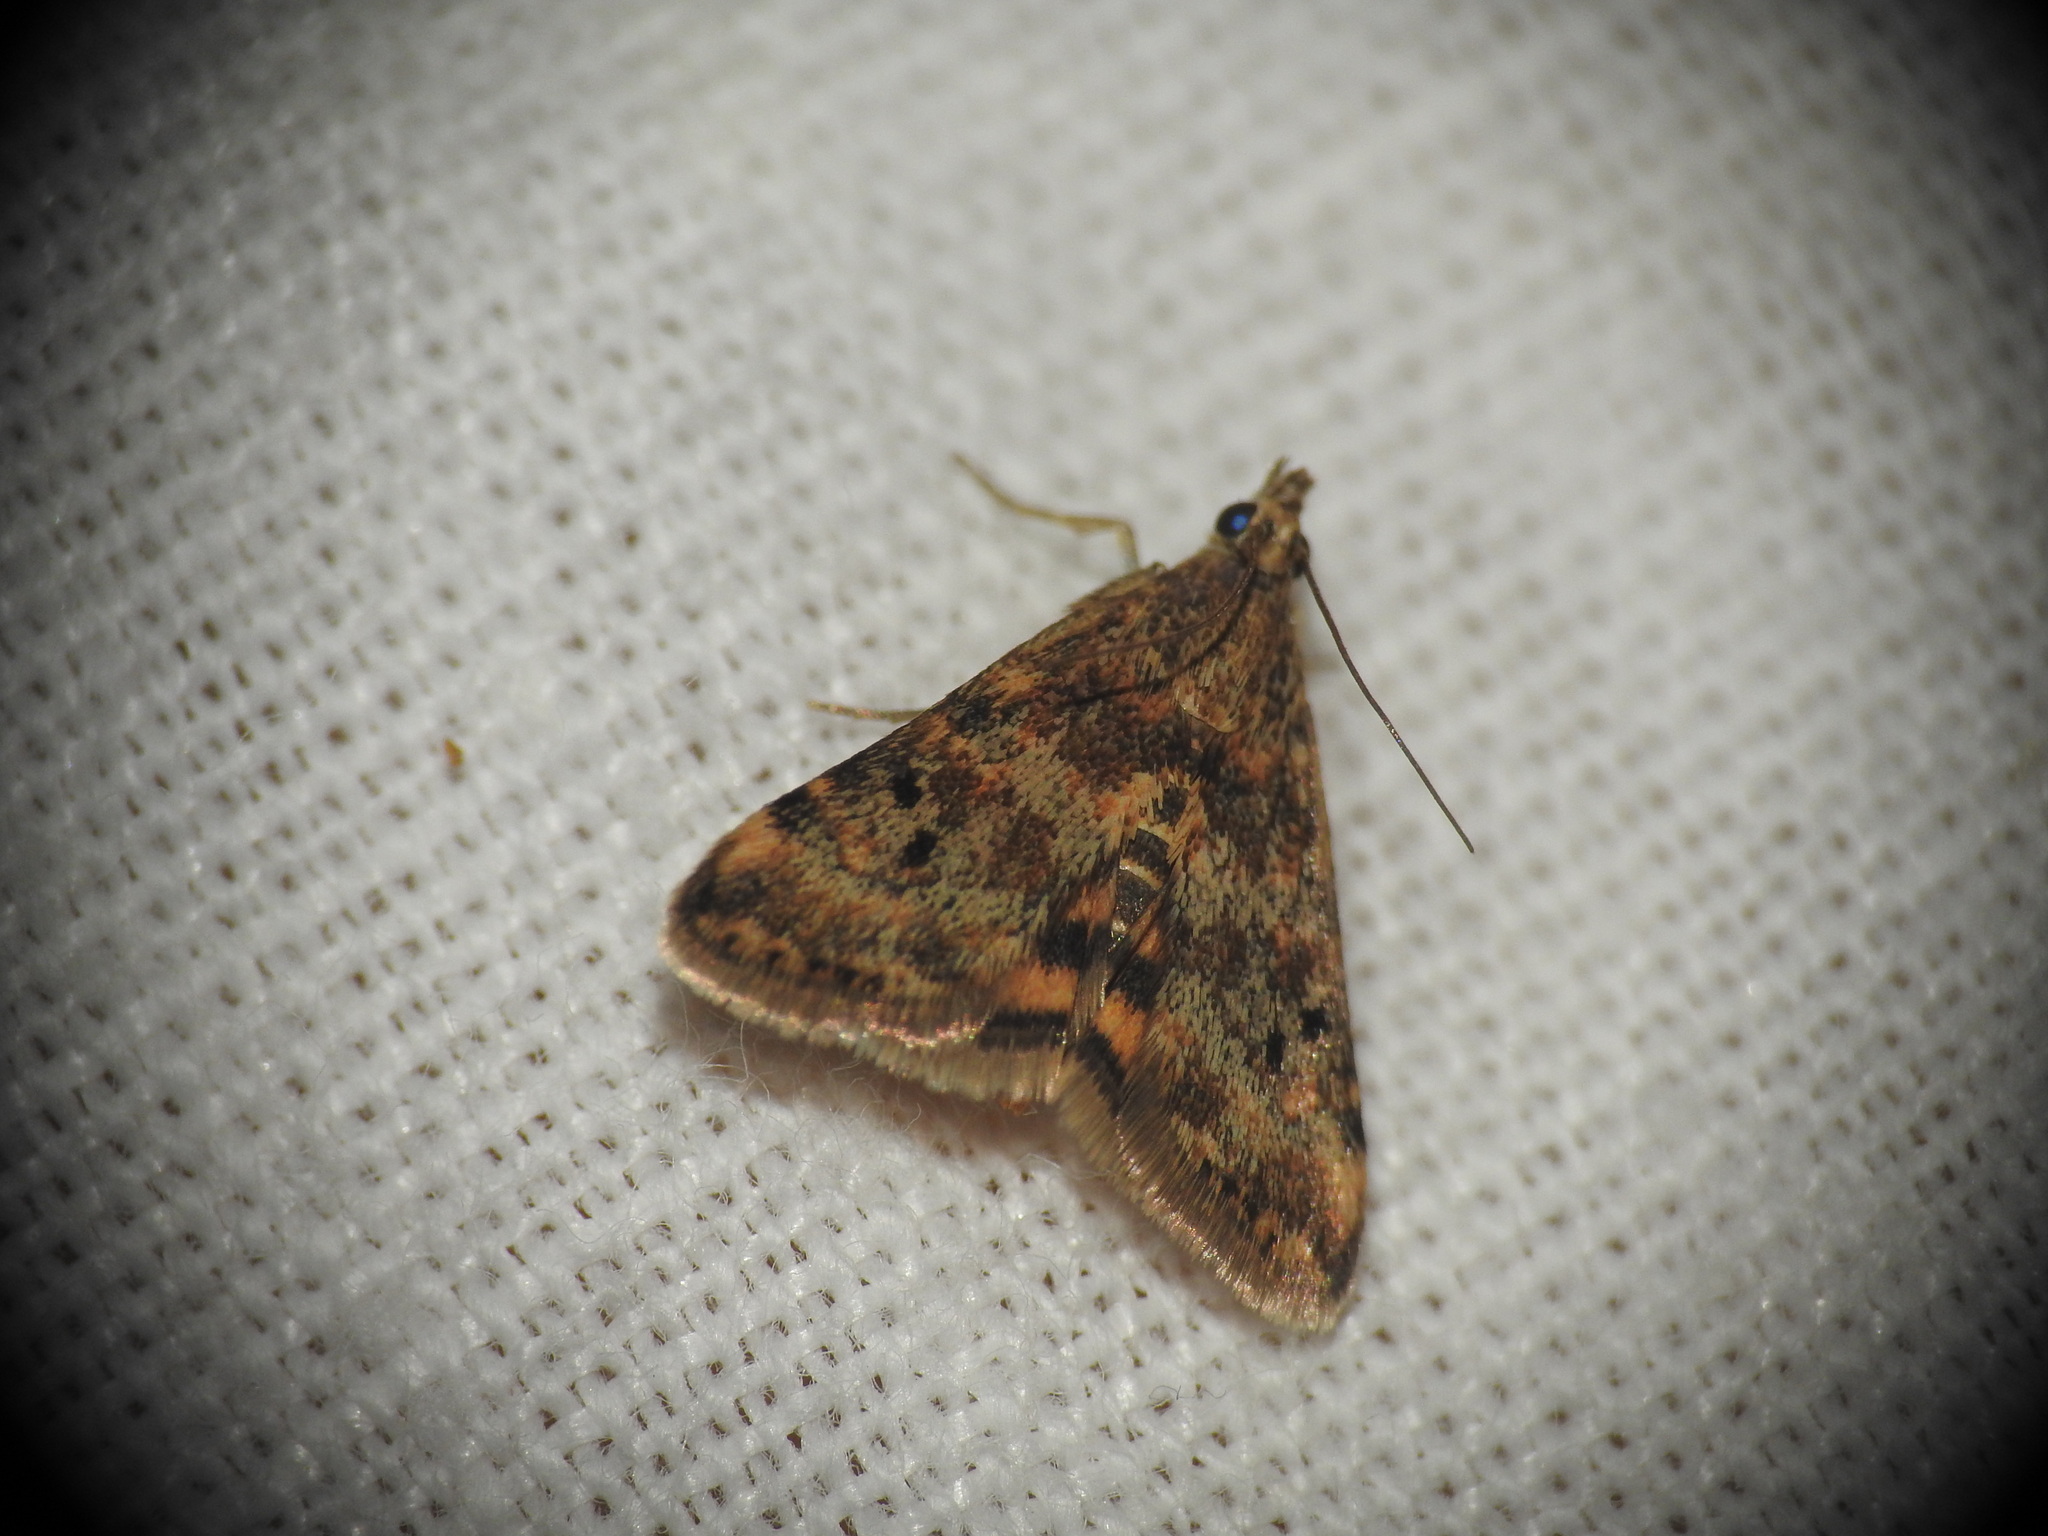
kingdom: Animalia
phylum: Arthropoda
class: Insecta
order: Lepidoptera
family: Crambidae
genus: Noctuelia
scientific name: Noctuelia Aporodes floralis
